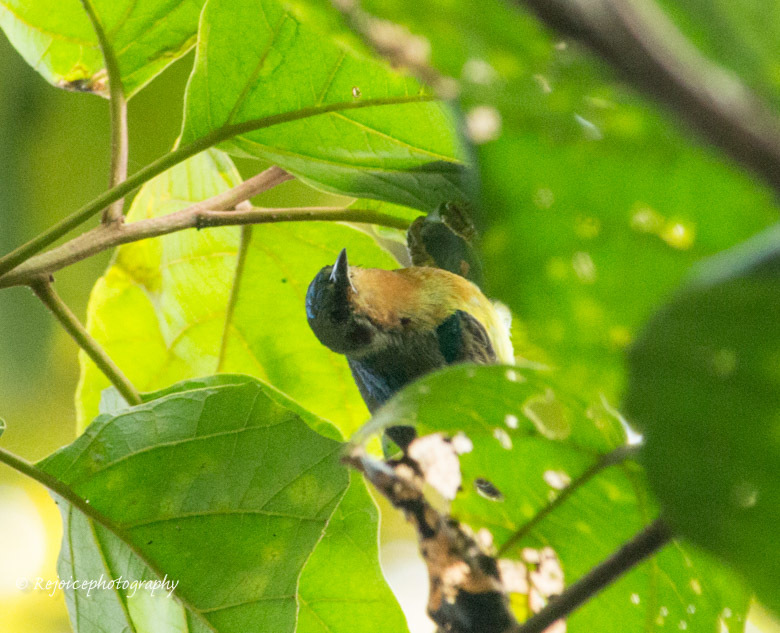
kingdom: Animalia
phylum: Chordata
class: Aves
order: Passeriformes
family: Nectariniidae
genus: Chalcoparia
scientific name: Chalcoparia singalensis
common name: Ruby-cheeked sunbird
